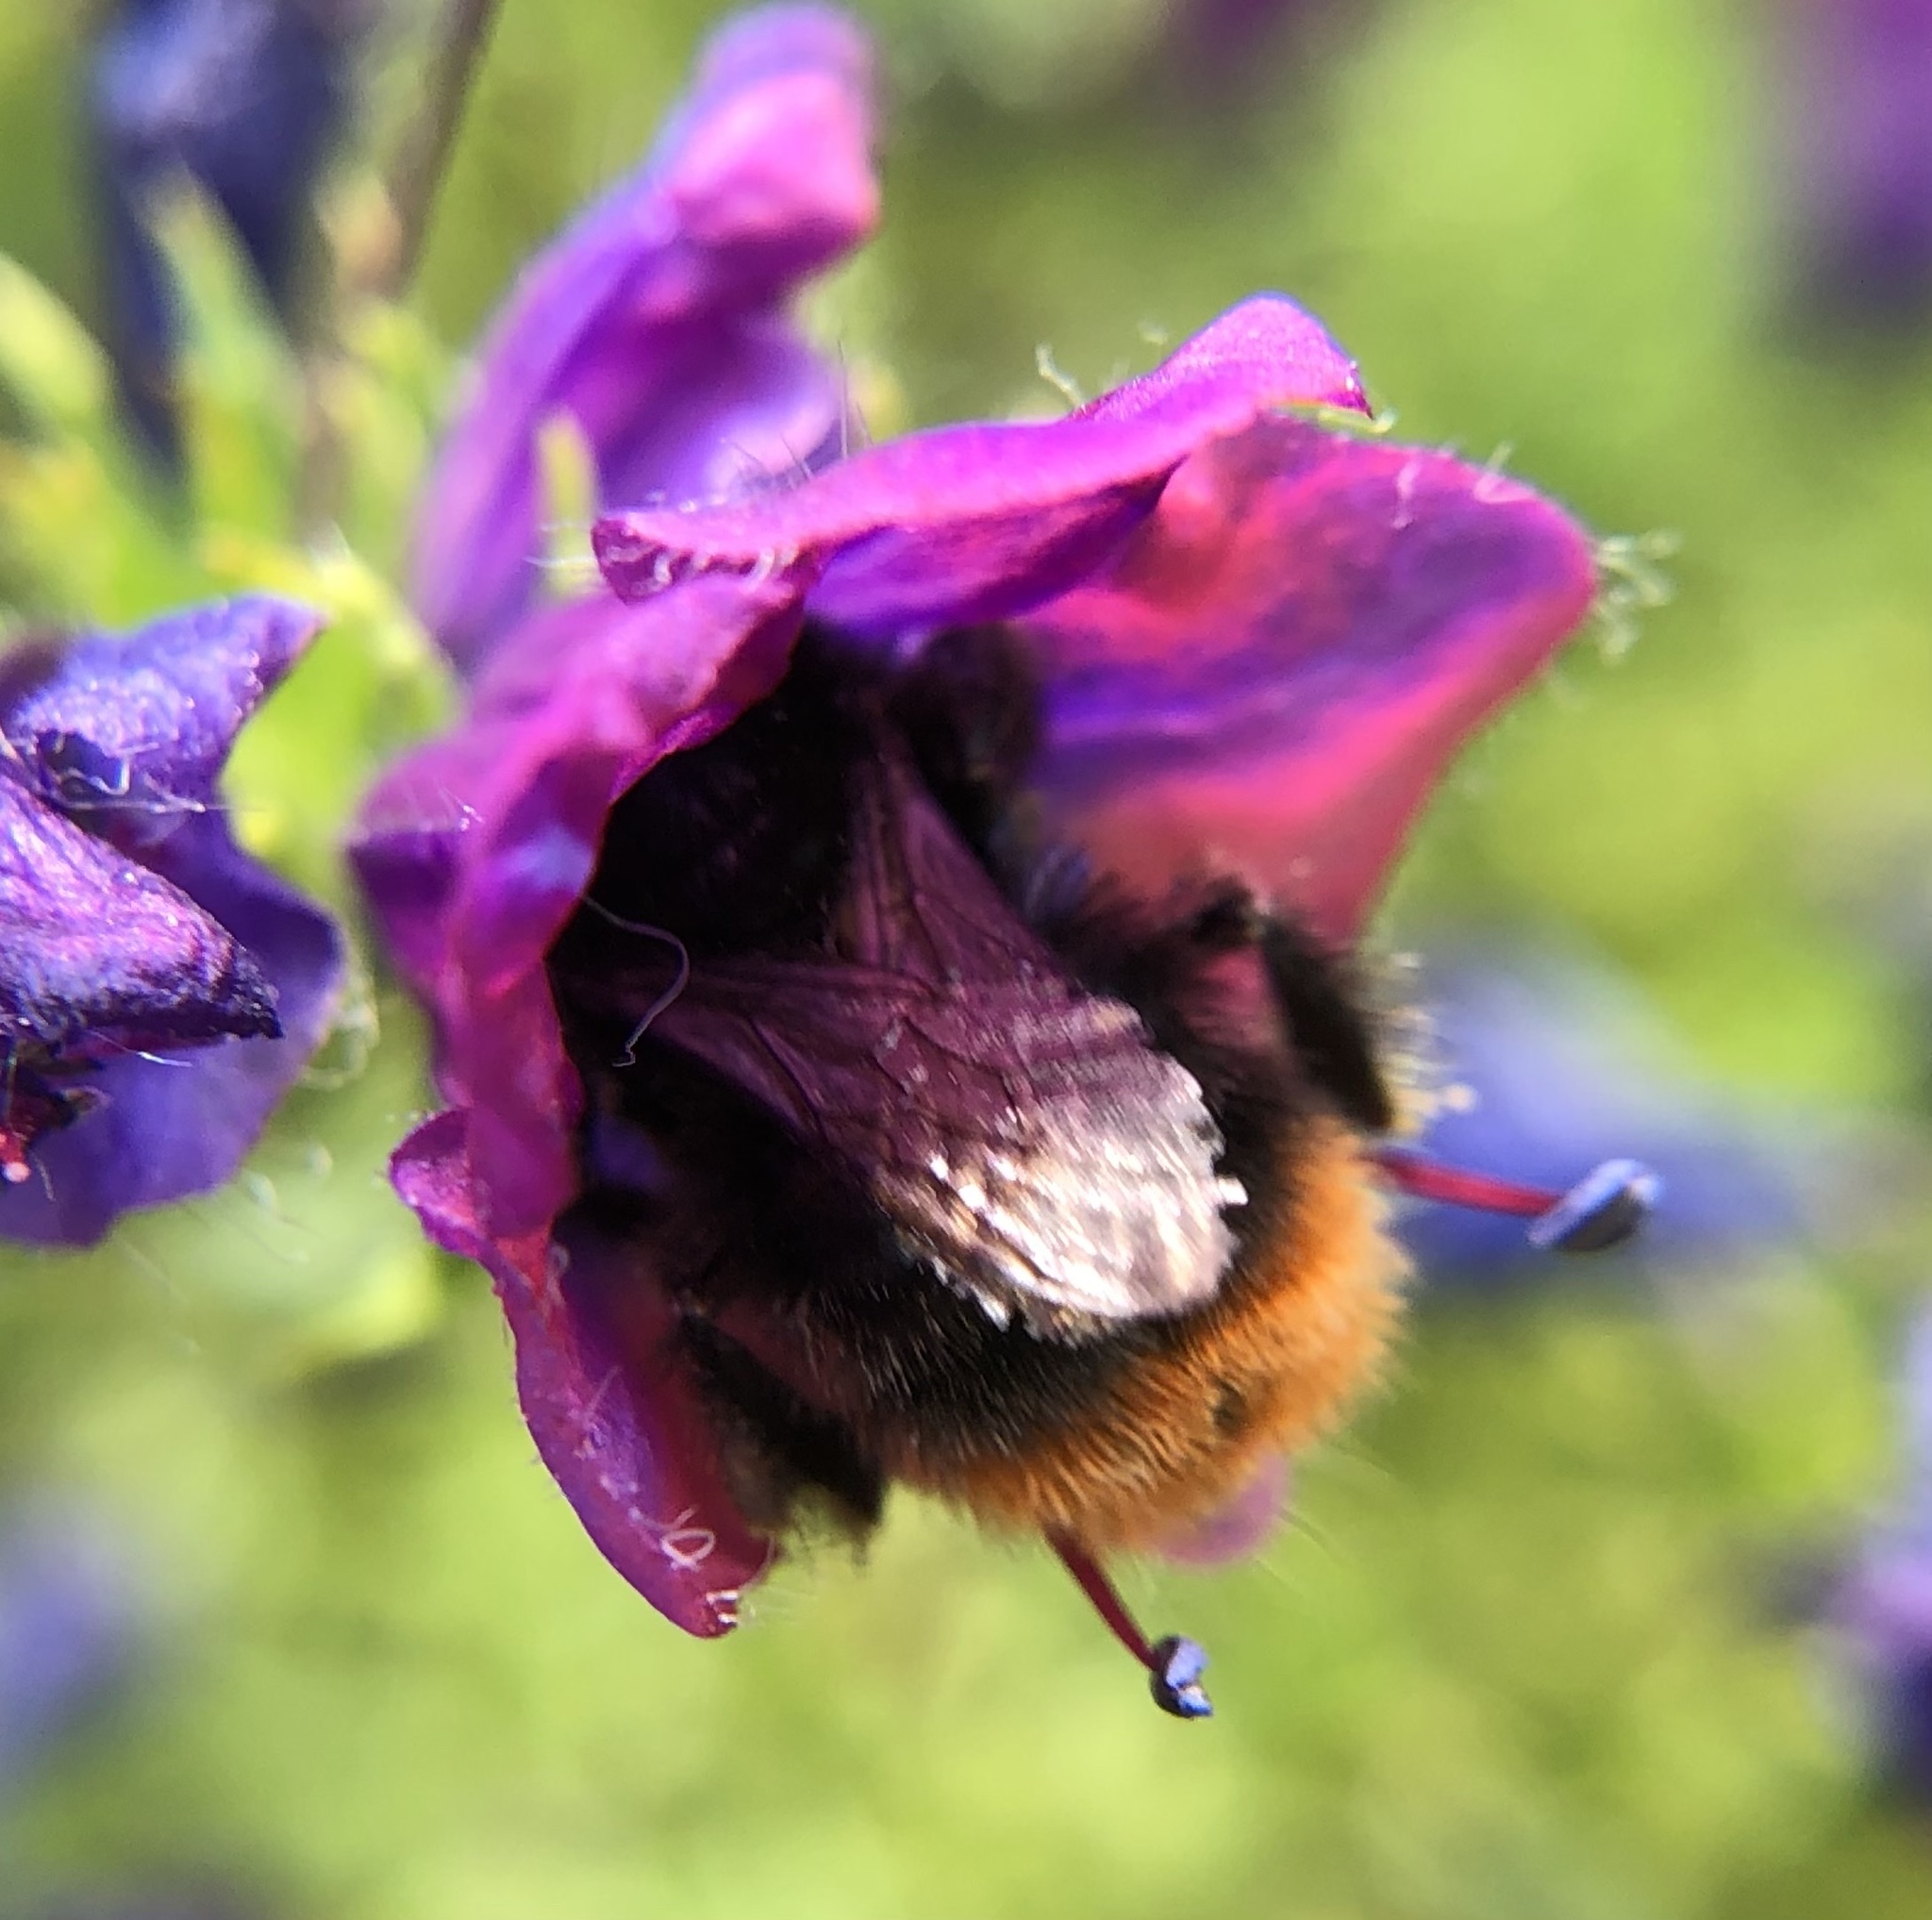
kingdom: Animalia
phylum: Arthropoda
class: Insecta
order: Hymenoptera
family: Apidae
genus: Bombus
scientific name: Bombus lapidarius
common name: Large red-tailed humble-bee
